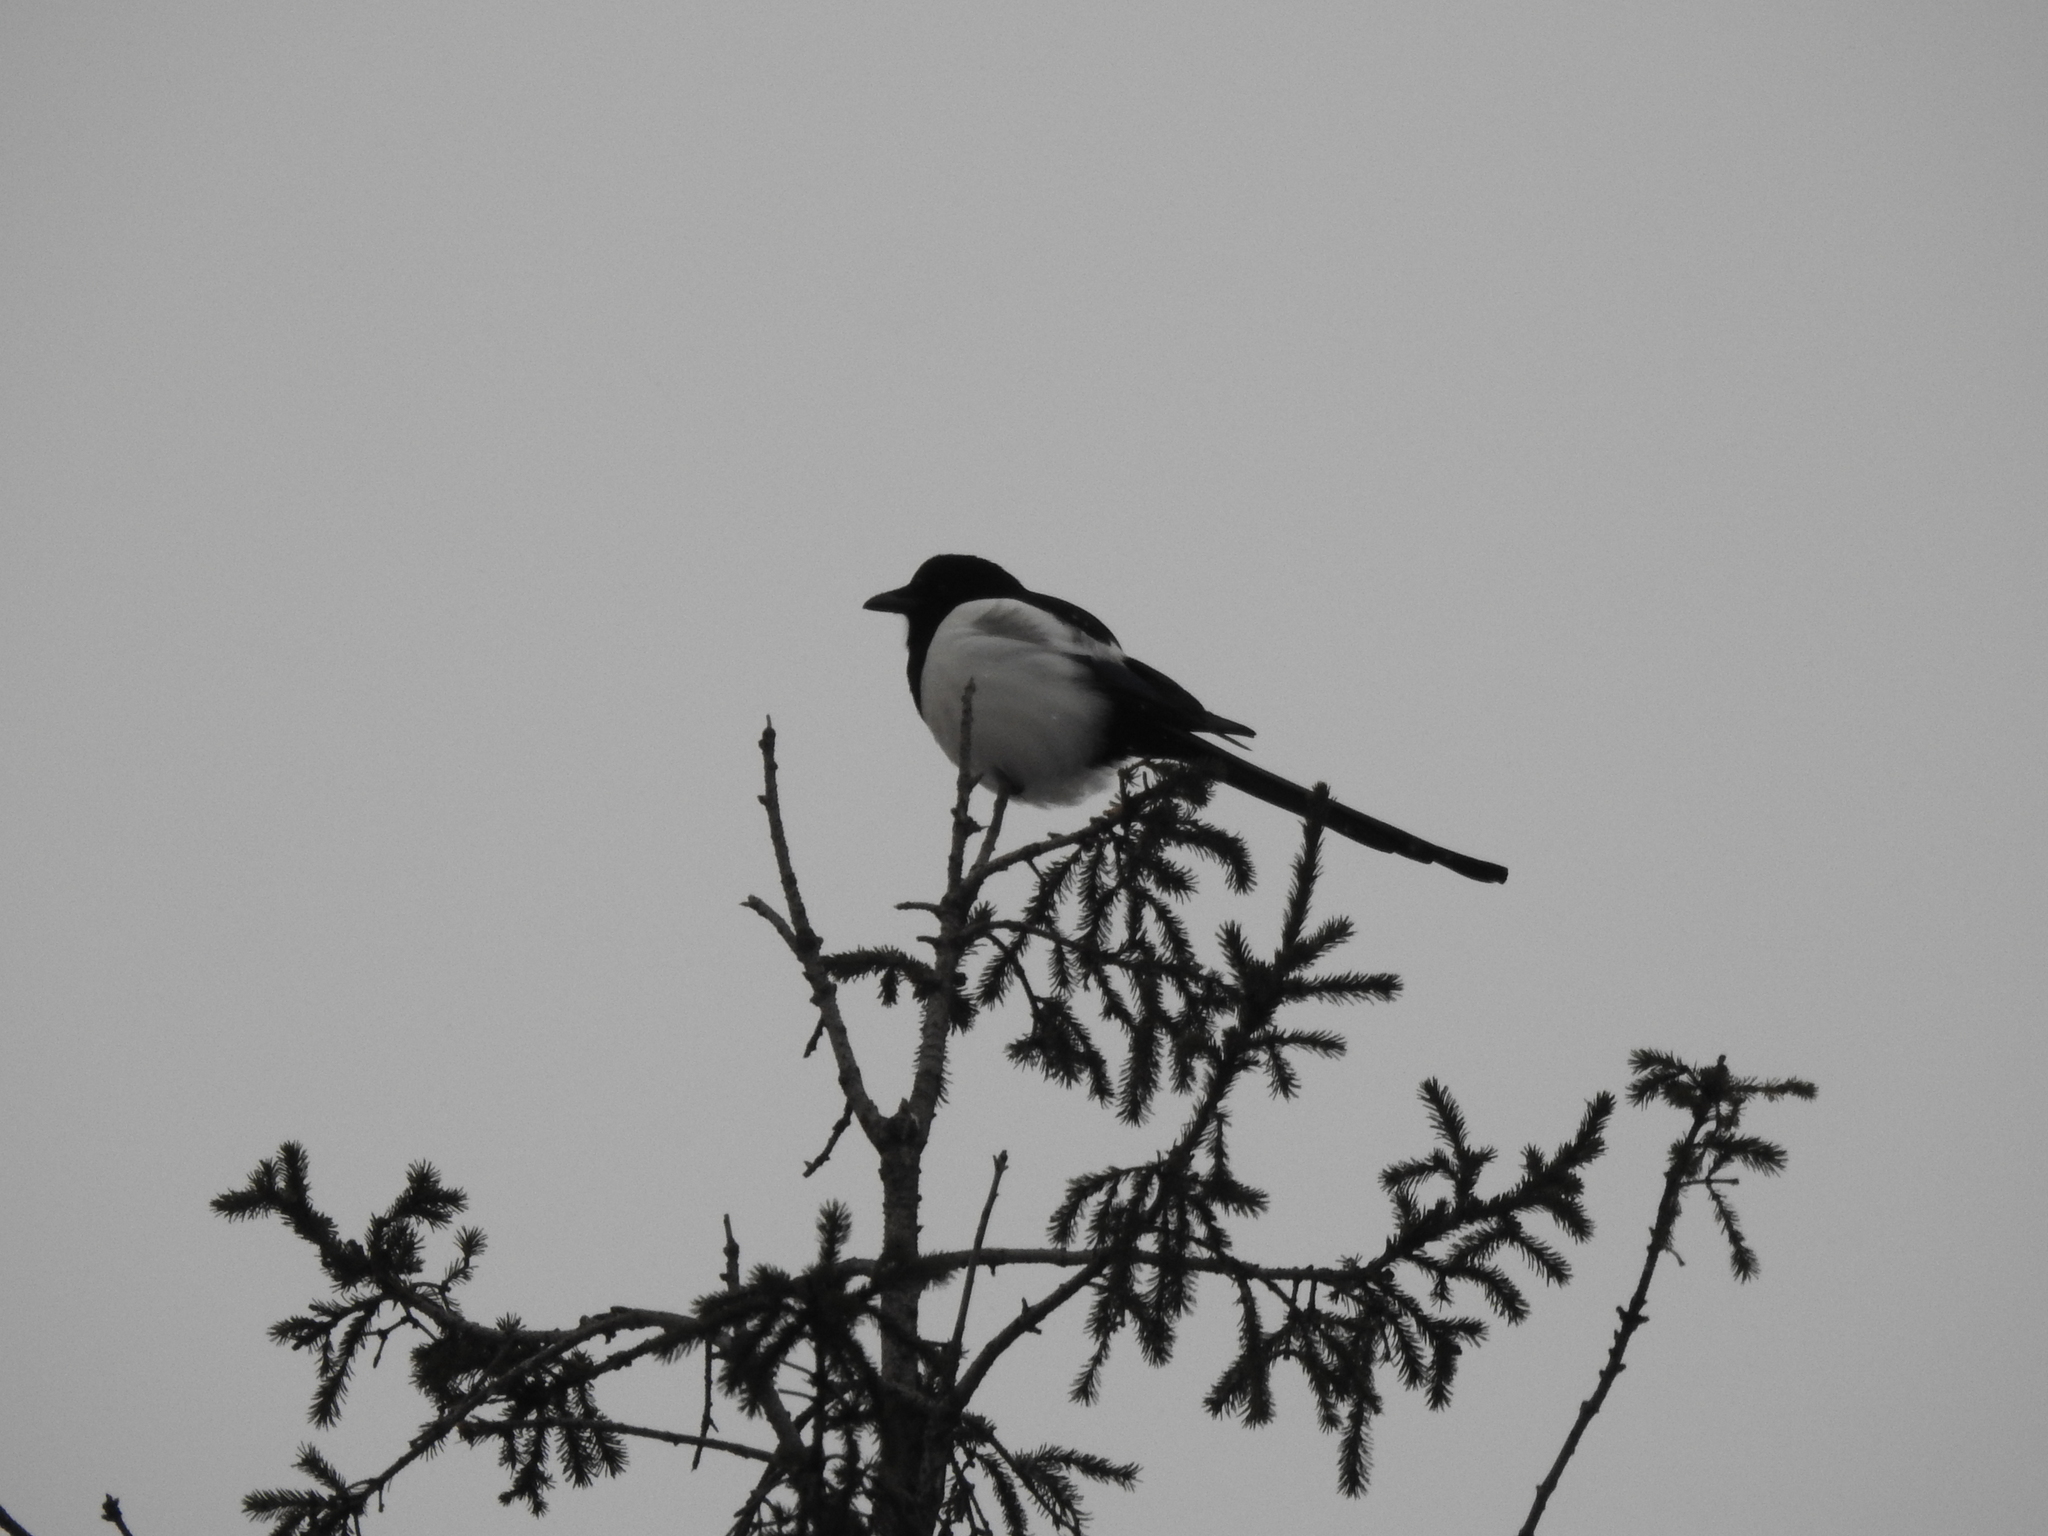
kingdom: Animalia
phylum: Chordata
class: Aves
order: Passeriformes
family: Corvidae
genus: Pica
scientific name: Pica pica
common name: Eurasian magpie
